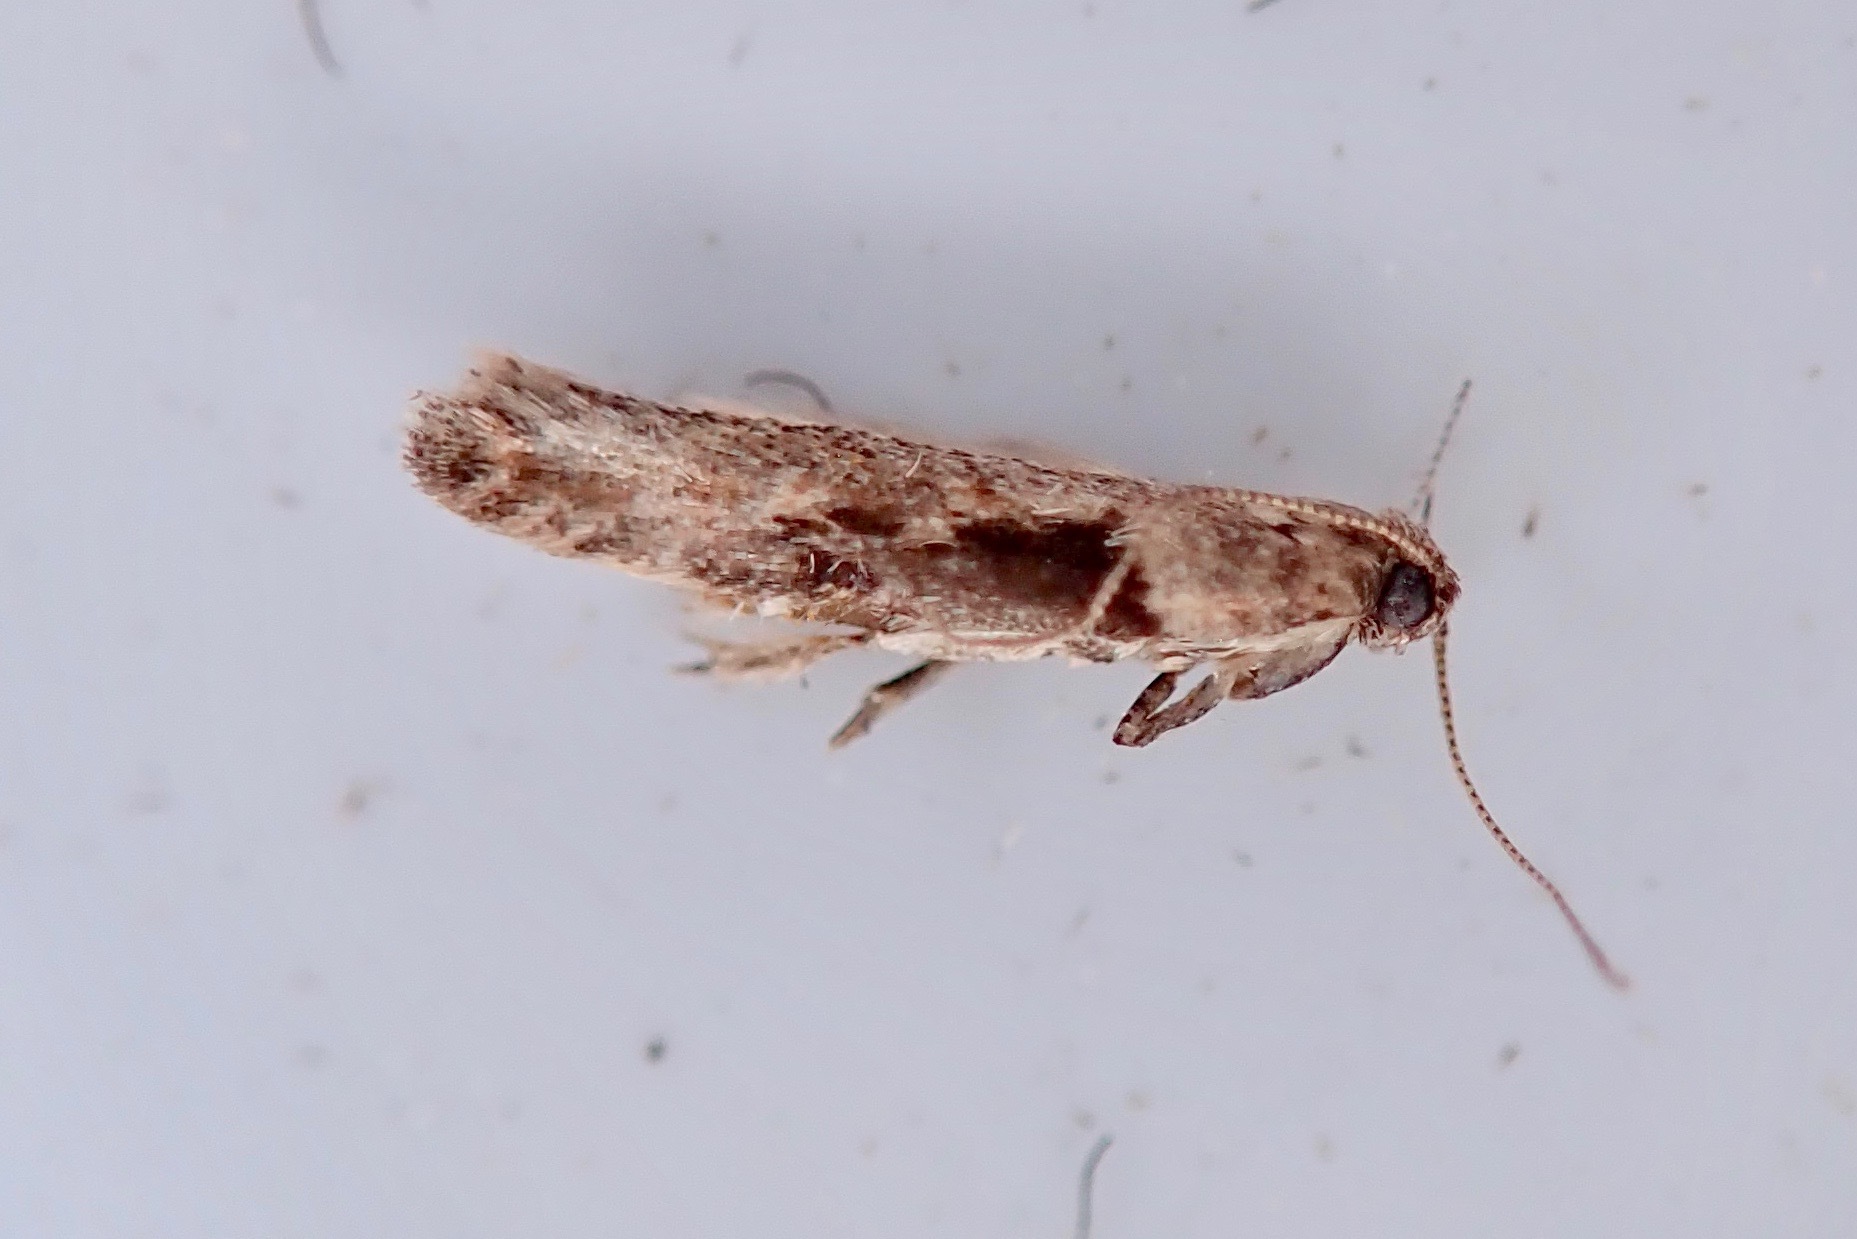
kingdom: Animalia
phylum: Arthropoda
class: Insecta
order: Lepidoptera
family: Gelechiidae
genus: Symmetrischema
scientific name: Symmetrischema tangolias
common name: Moth
